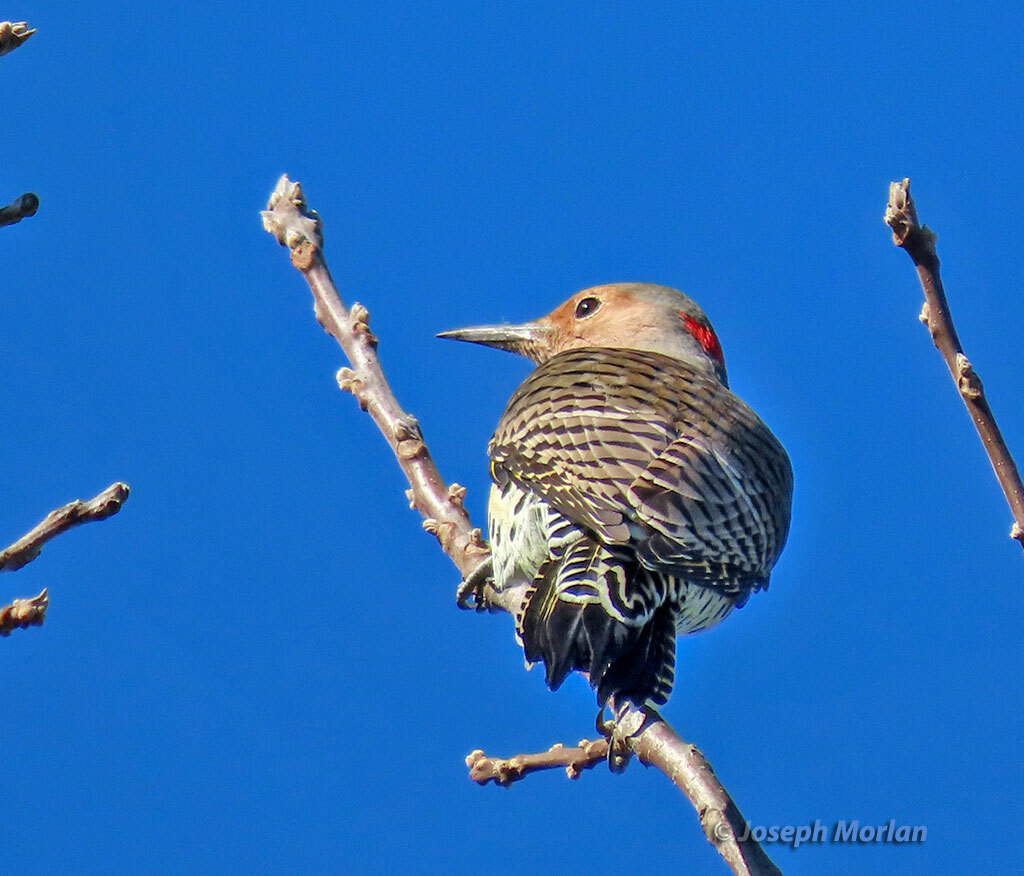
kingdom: Animalia
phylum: Chordata
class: Aves
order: Piciformes
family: Picidae
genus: Colaptes
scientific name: Colaptes auratus
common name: Northern flicker
